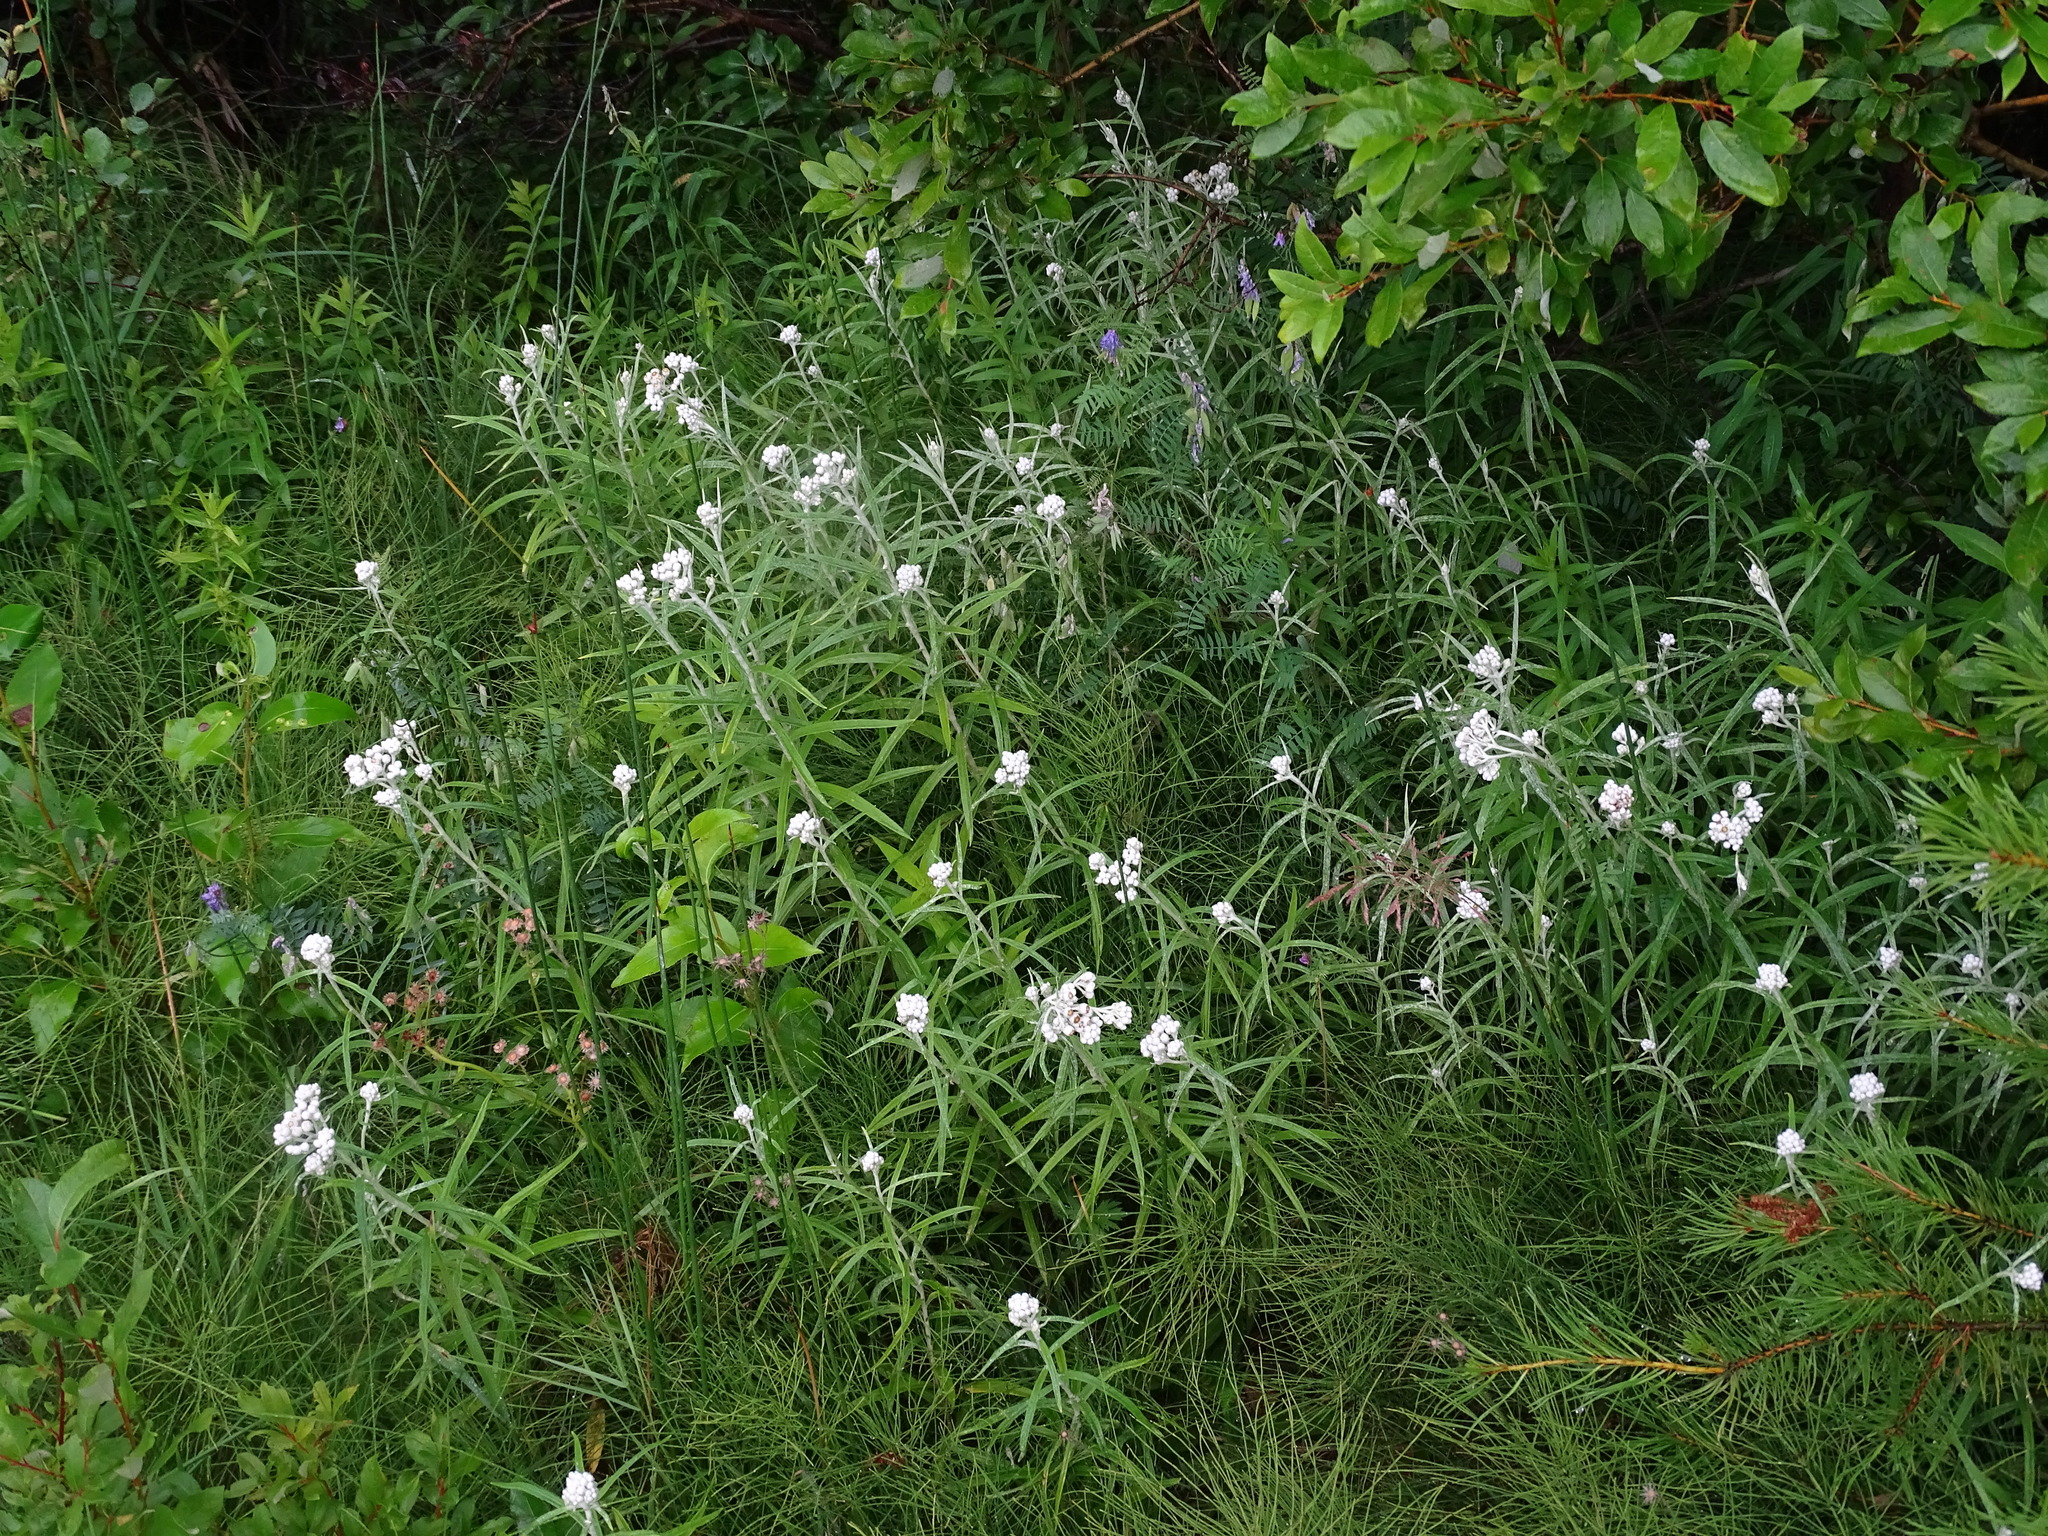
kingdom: Plantae
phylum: Tracheophyta
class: Magnoliopsida
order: Asterales
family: Asteraceae
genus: Anaphalis
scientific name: Anaphalis margaritacea
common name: Pearly everlasting
